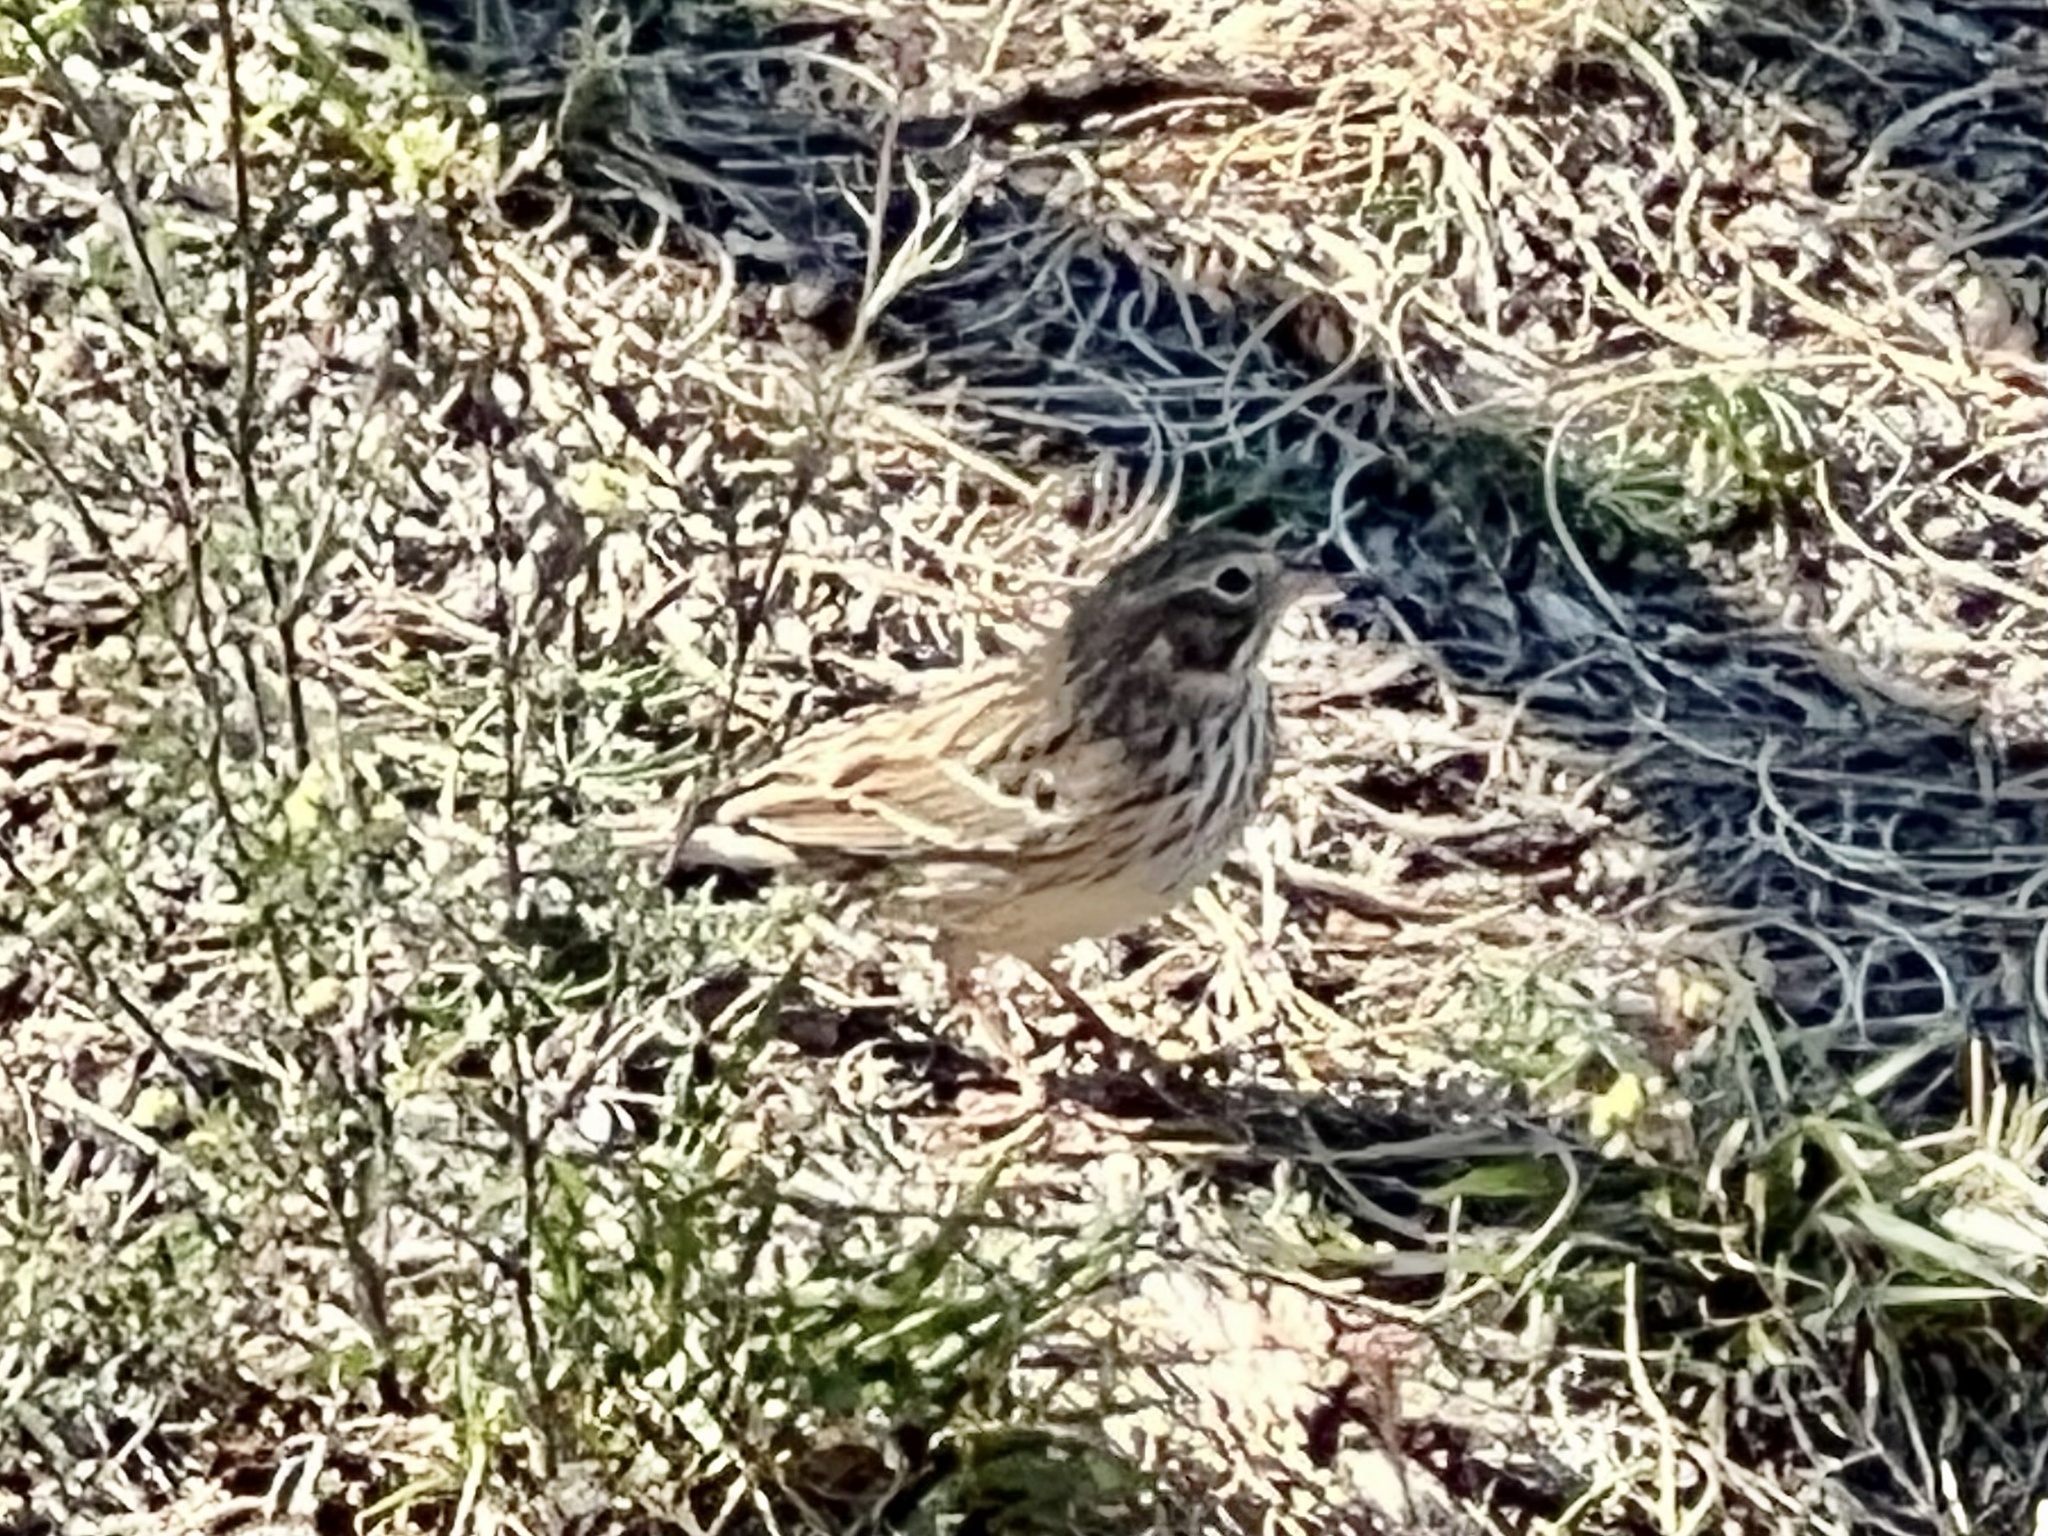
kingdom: Animalia
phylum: Chordata
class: Aves
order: Passeriformes
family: Passerellidae
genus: Pooecetes
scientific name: Pooecetes gramineus
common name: Vesper sparrow
